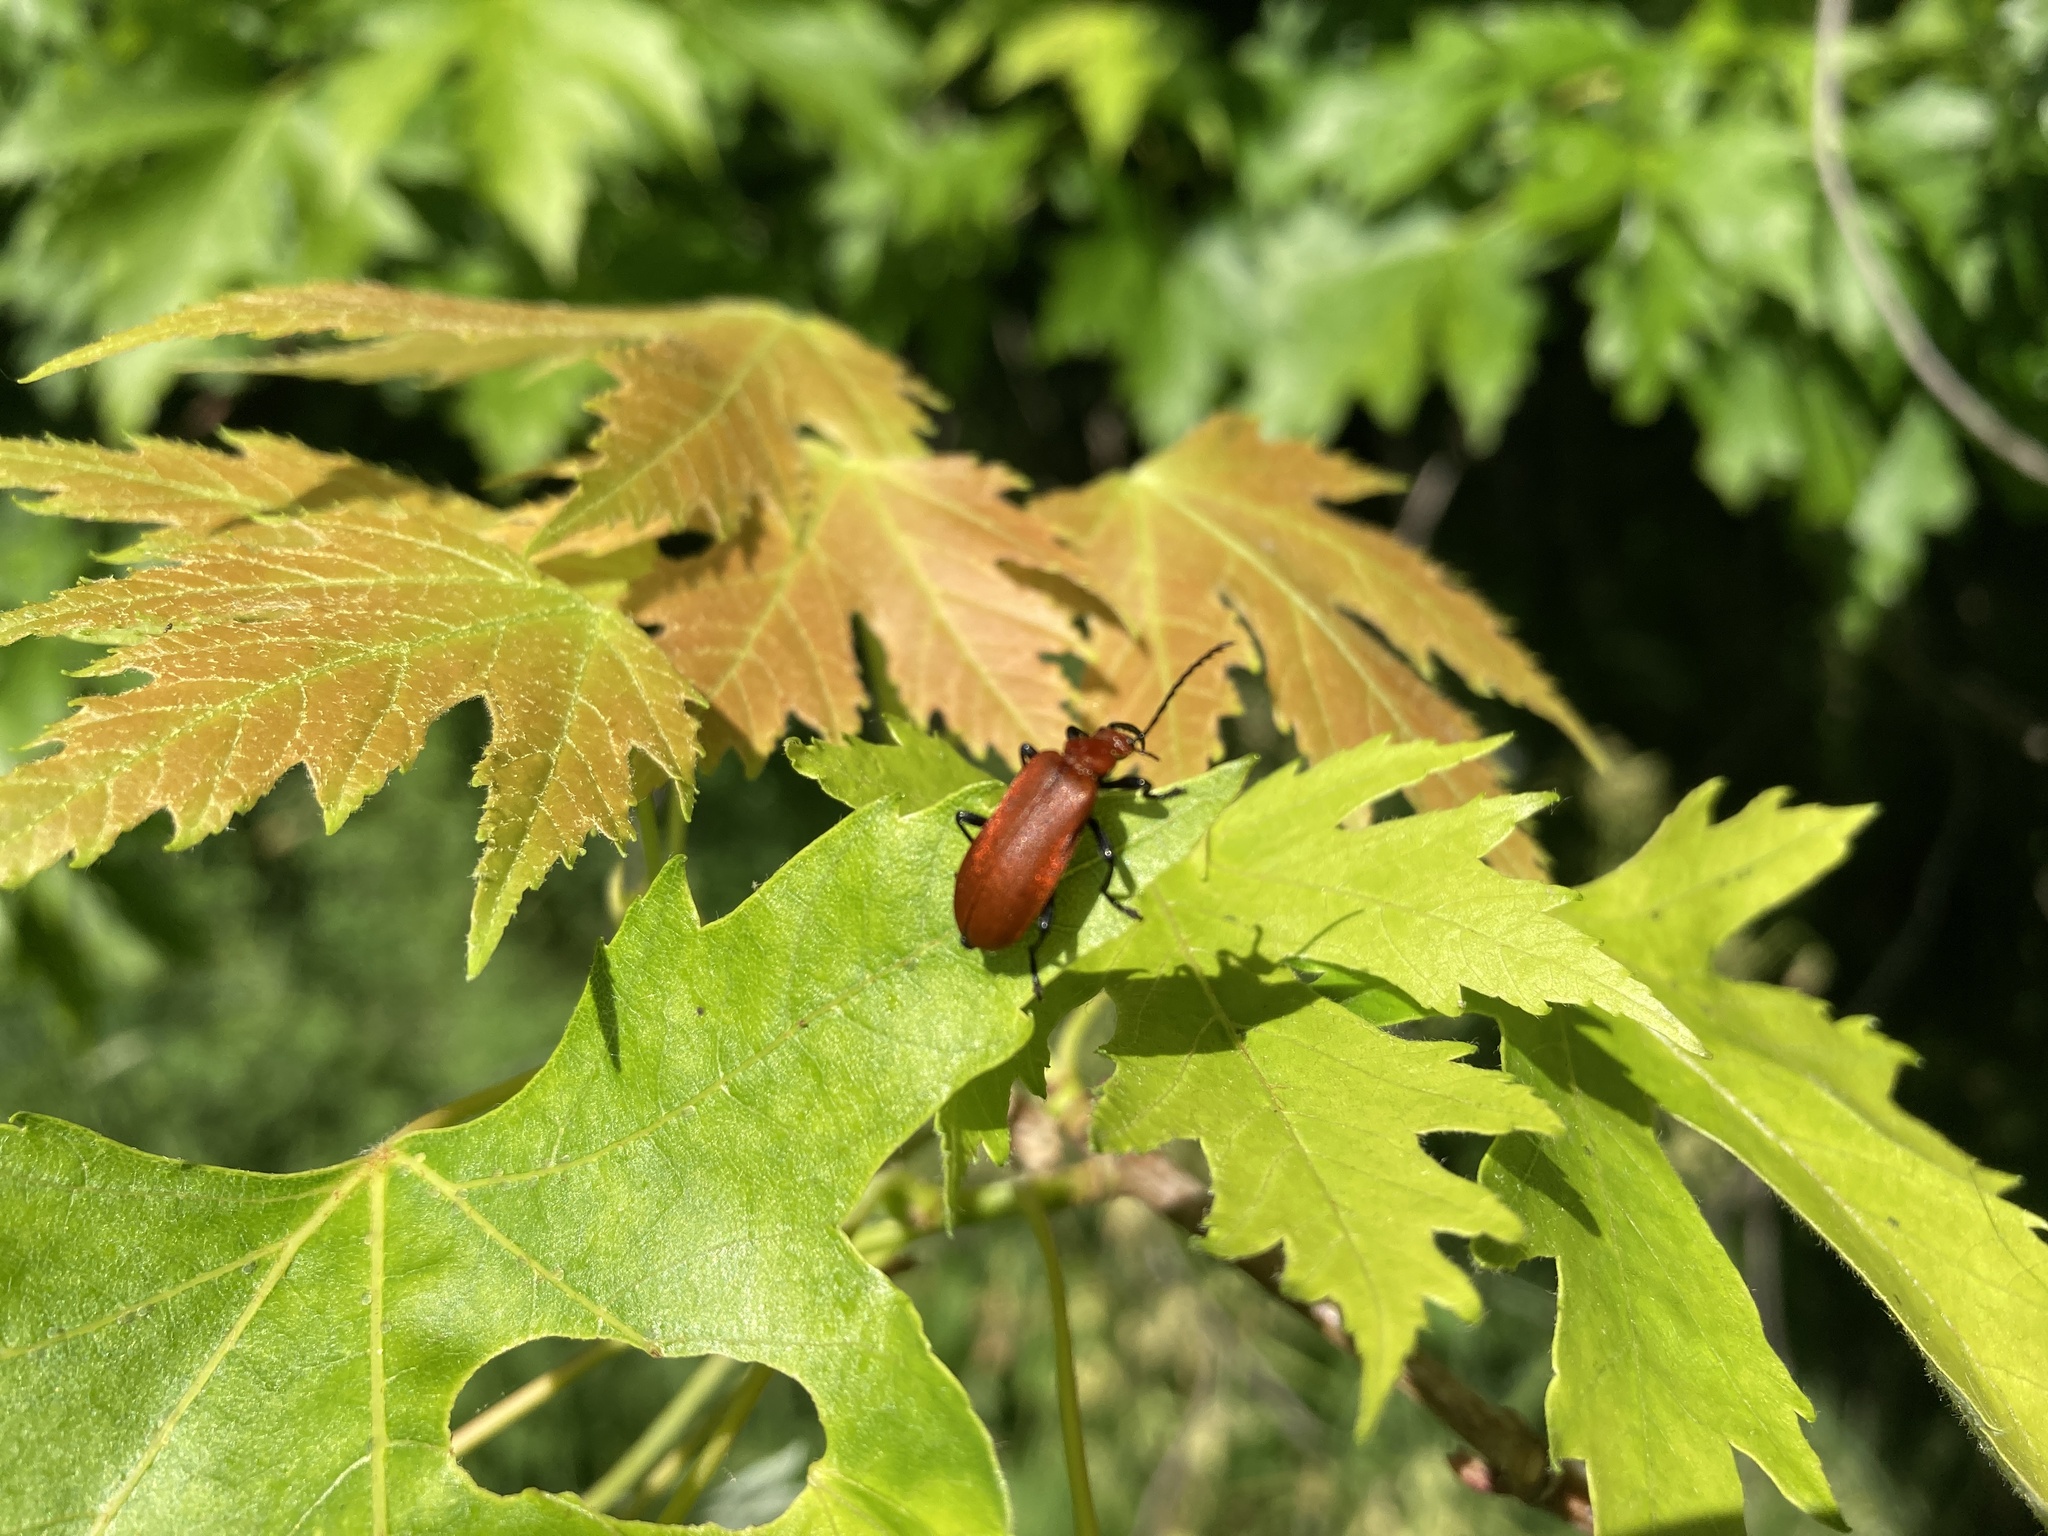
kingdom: Animalia
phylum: Arthropoda
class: Insecta
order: Coleoptera
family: Pyrochroidae
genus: Pyrochroa
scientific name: Pyrochroa serraticornis
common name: Red-headed cardinal beetle
